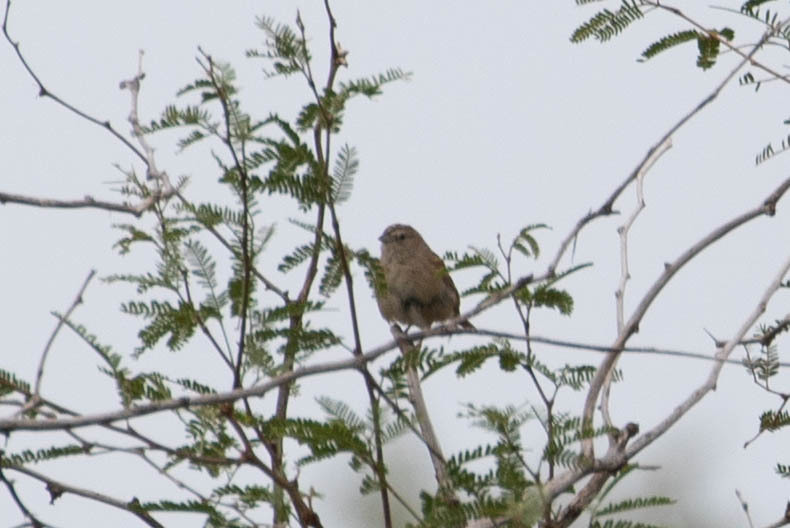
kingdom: Animalia
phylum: Chordata
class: Aves
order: Passeriformes
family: Passerellidae
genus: Peucaea
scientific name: Peucaea botterii
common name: Botteri's sparrow
